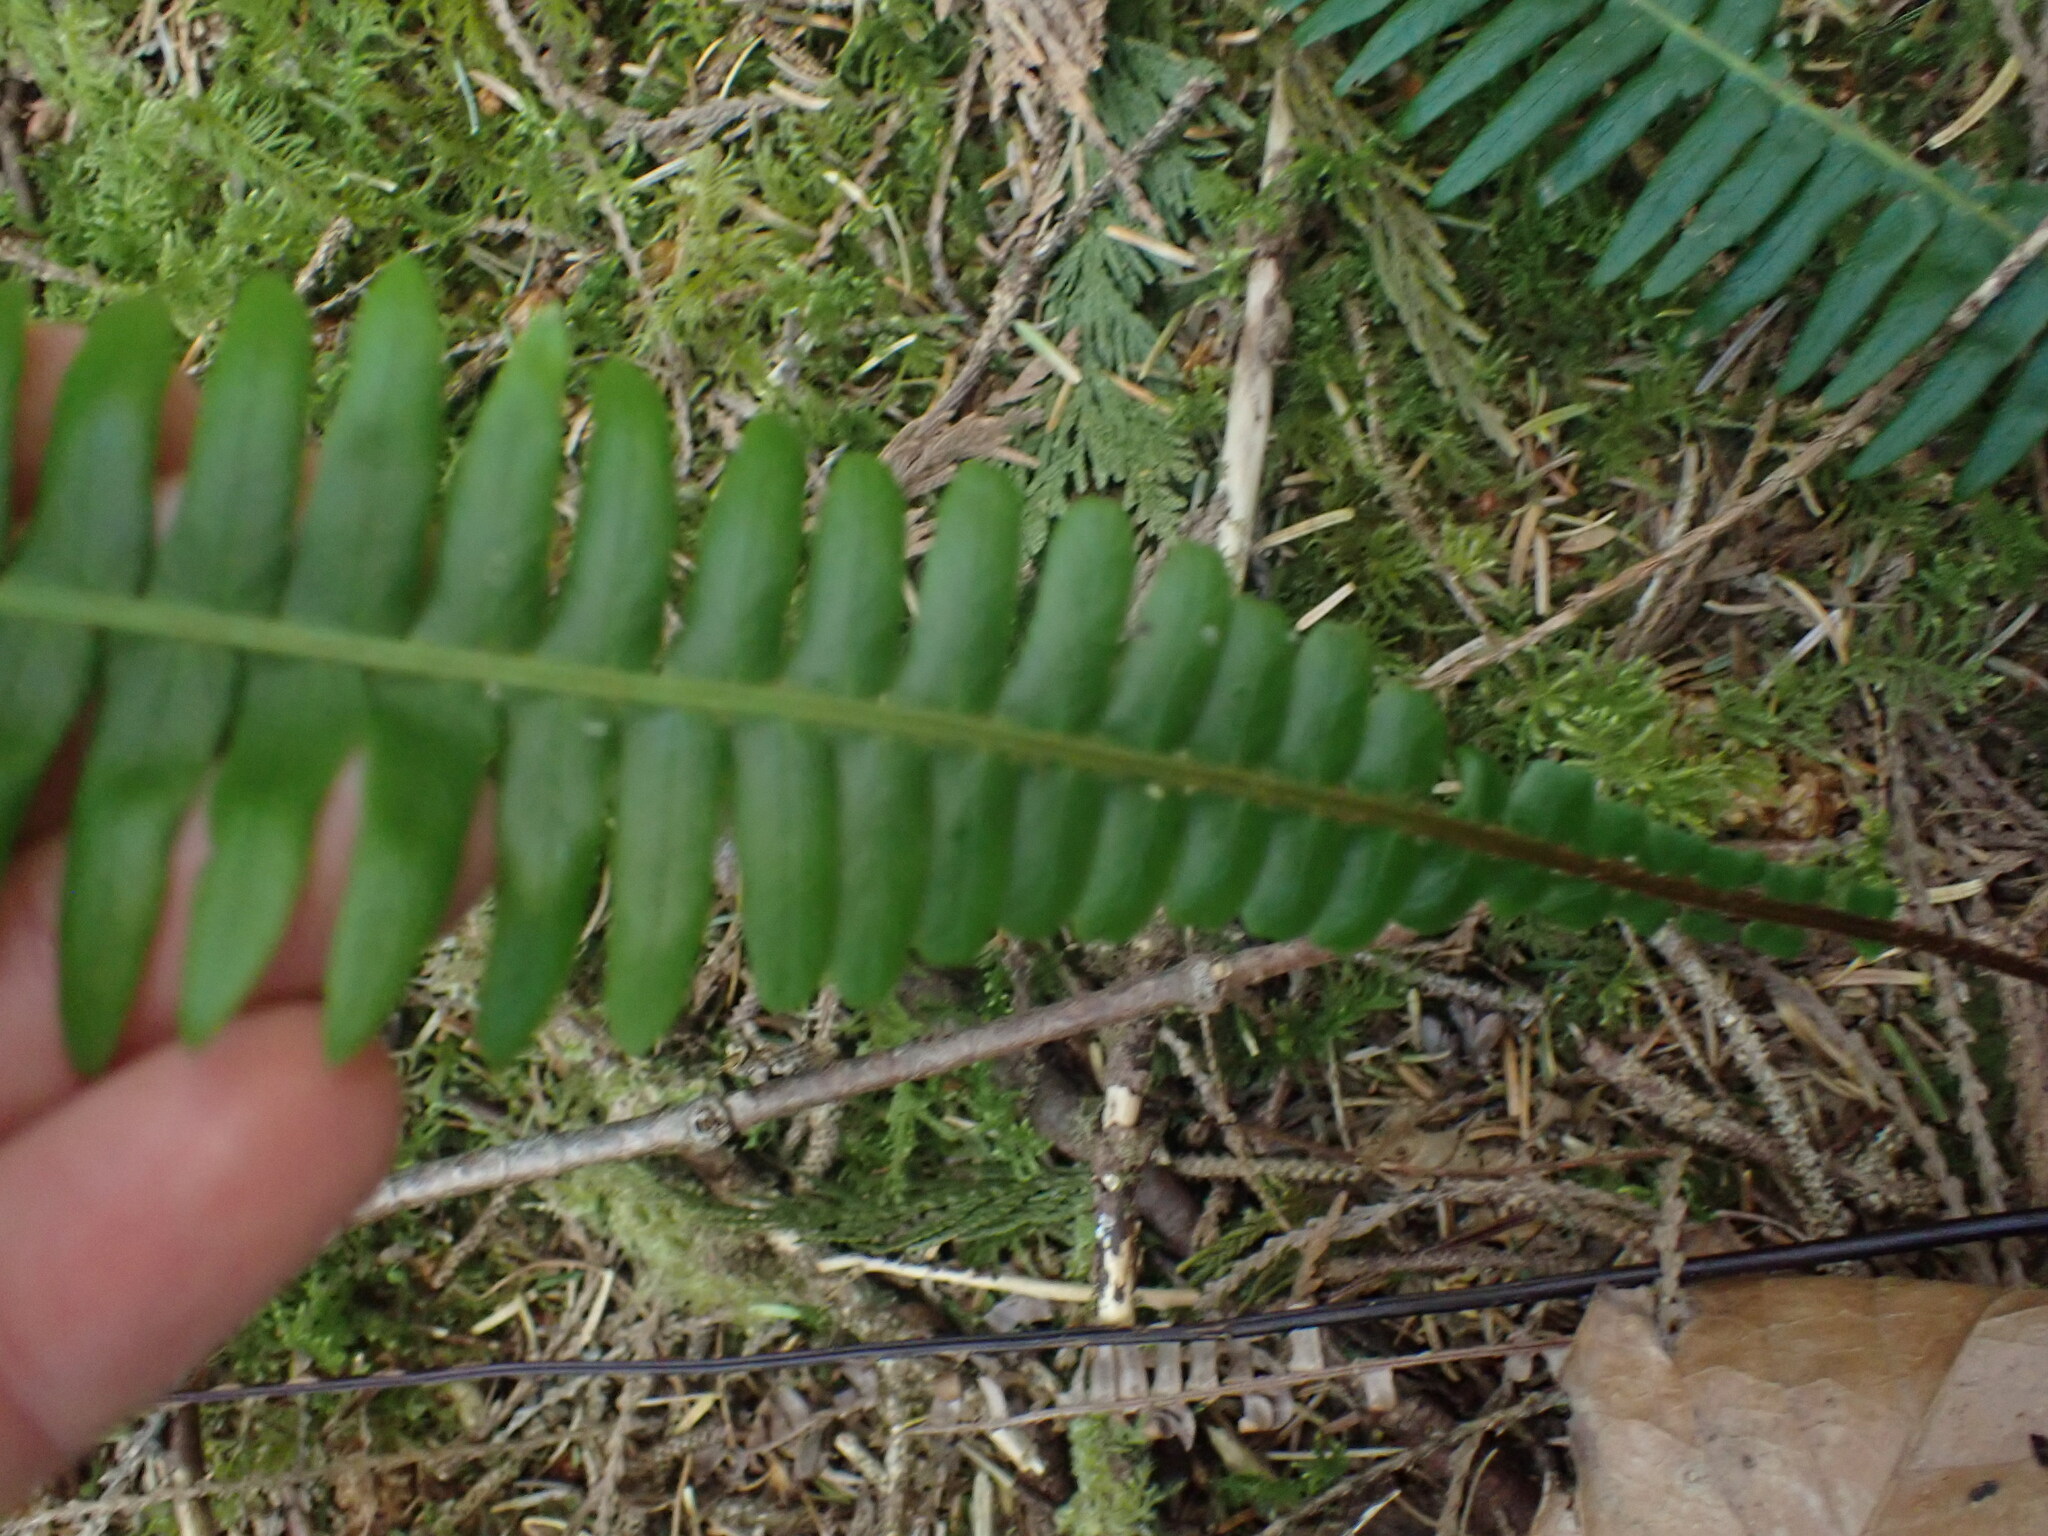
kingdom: Plantae
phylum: Tracheophyta
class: Polypodiopsida
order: Polypodiales
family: Blechnaceae
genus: Struthiopteris
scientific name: Struthiopteris spicant
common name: Deer fern
